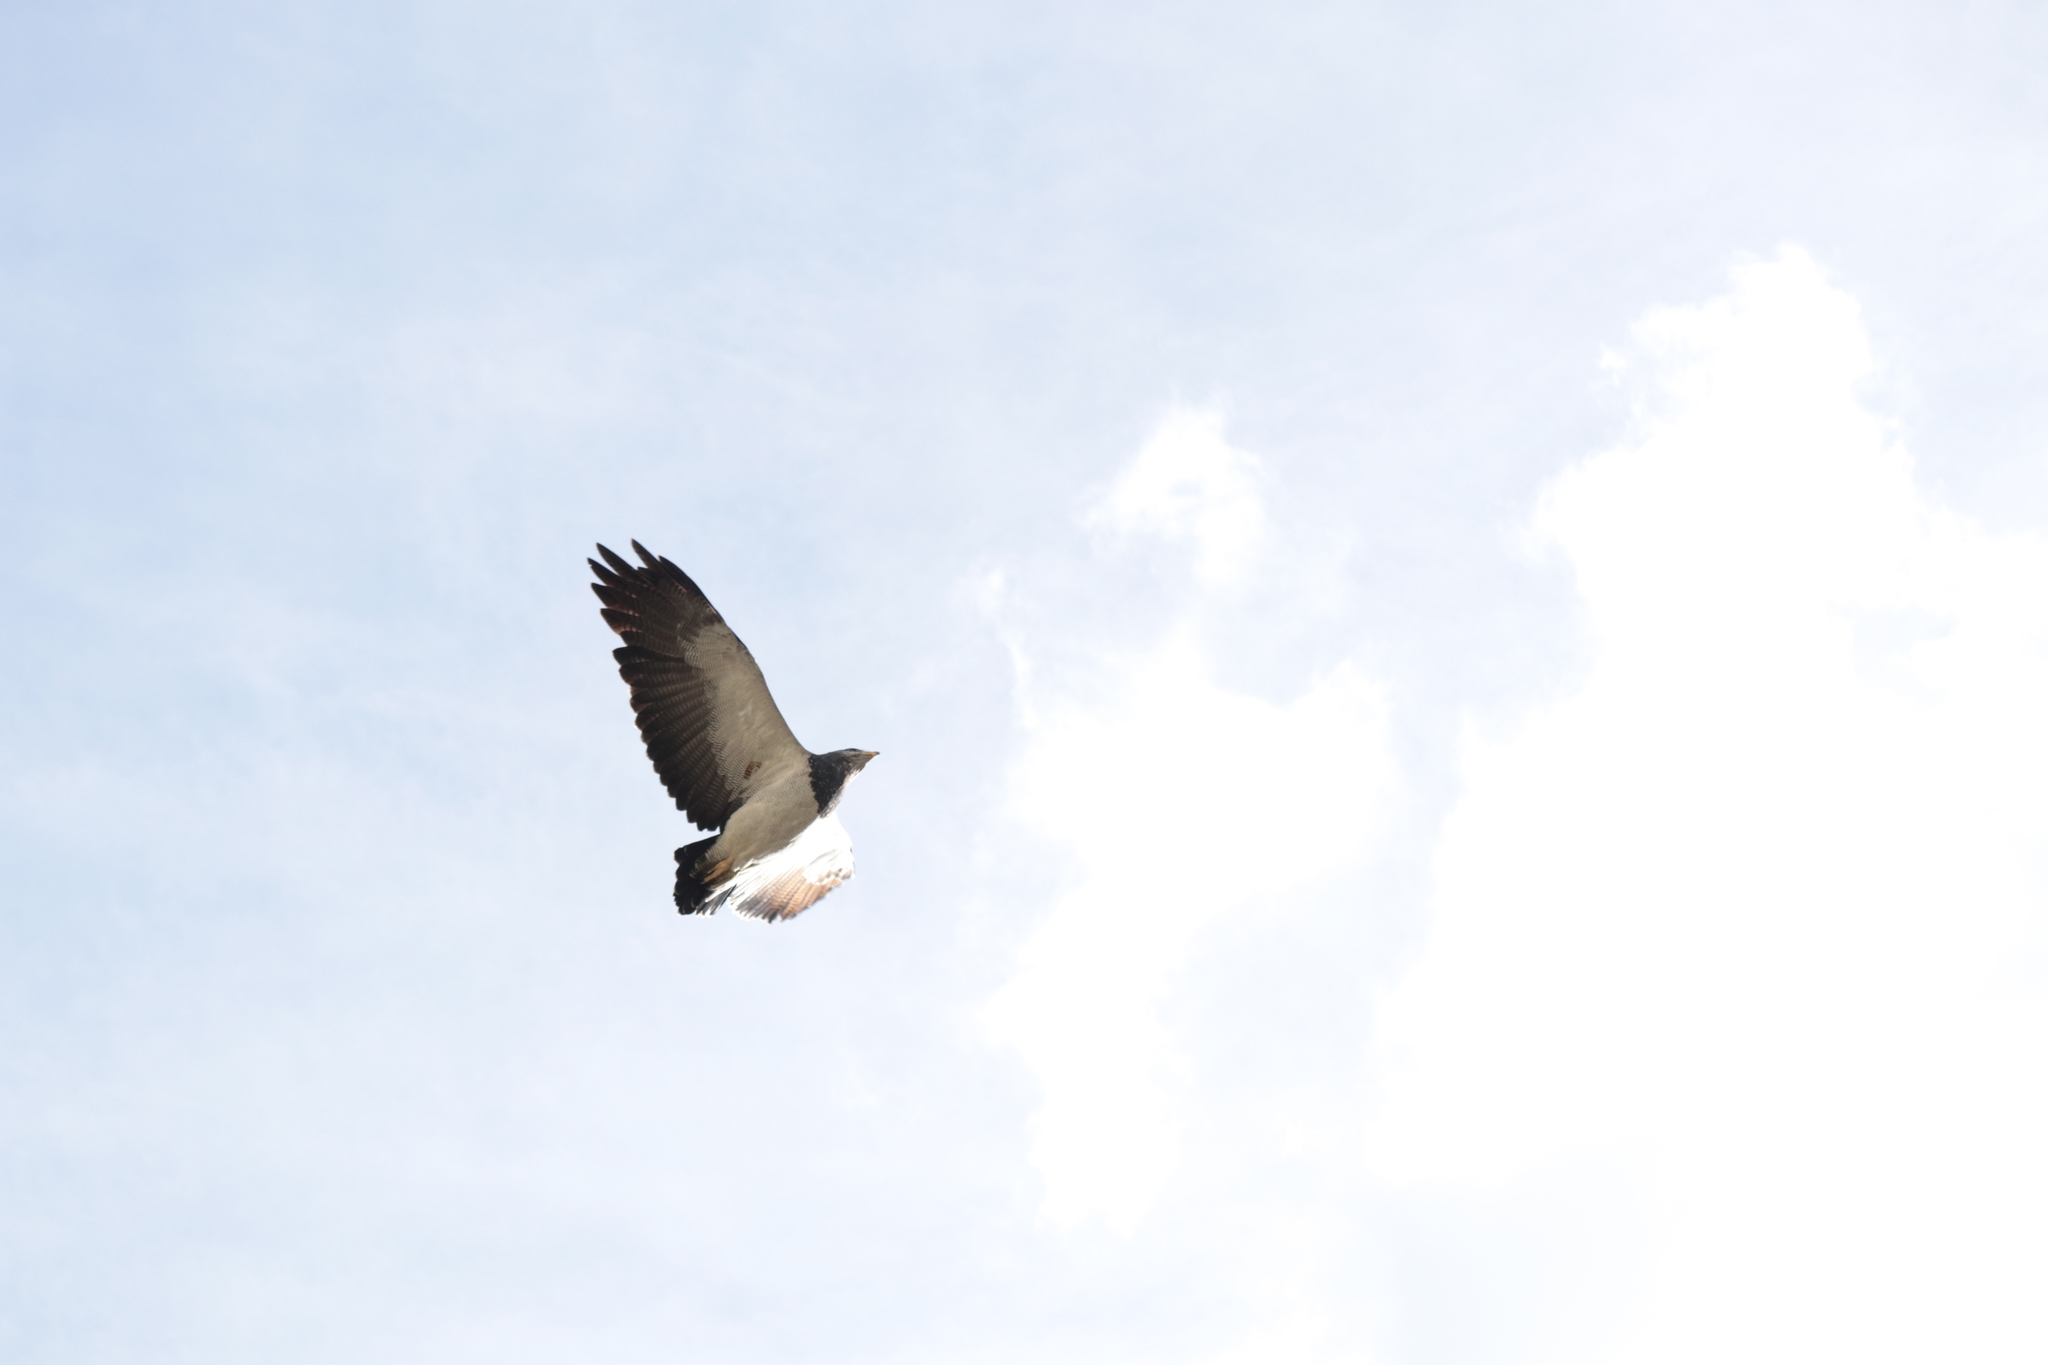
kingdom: Animalia
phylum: Chordata
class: Aves
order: Accipitriformes
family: Accipitridae
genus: Geranoaetus
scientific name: Geranoaetus melanoleucus
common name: Black-chested buzzard-eagle
